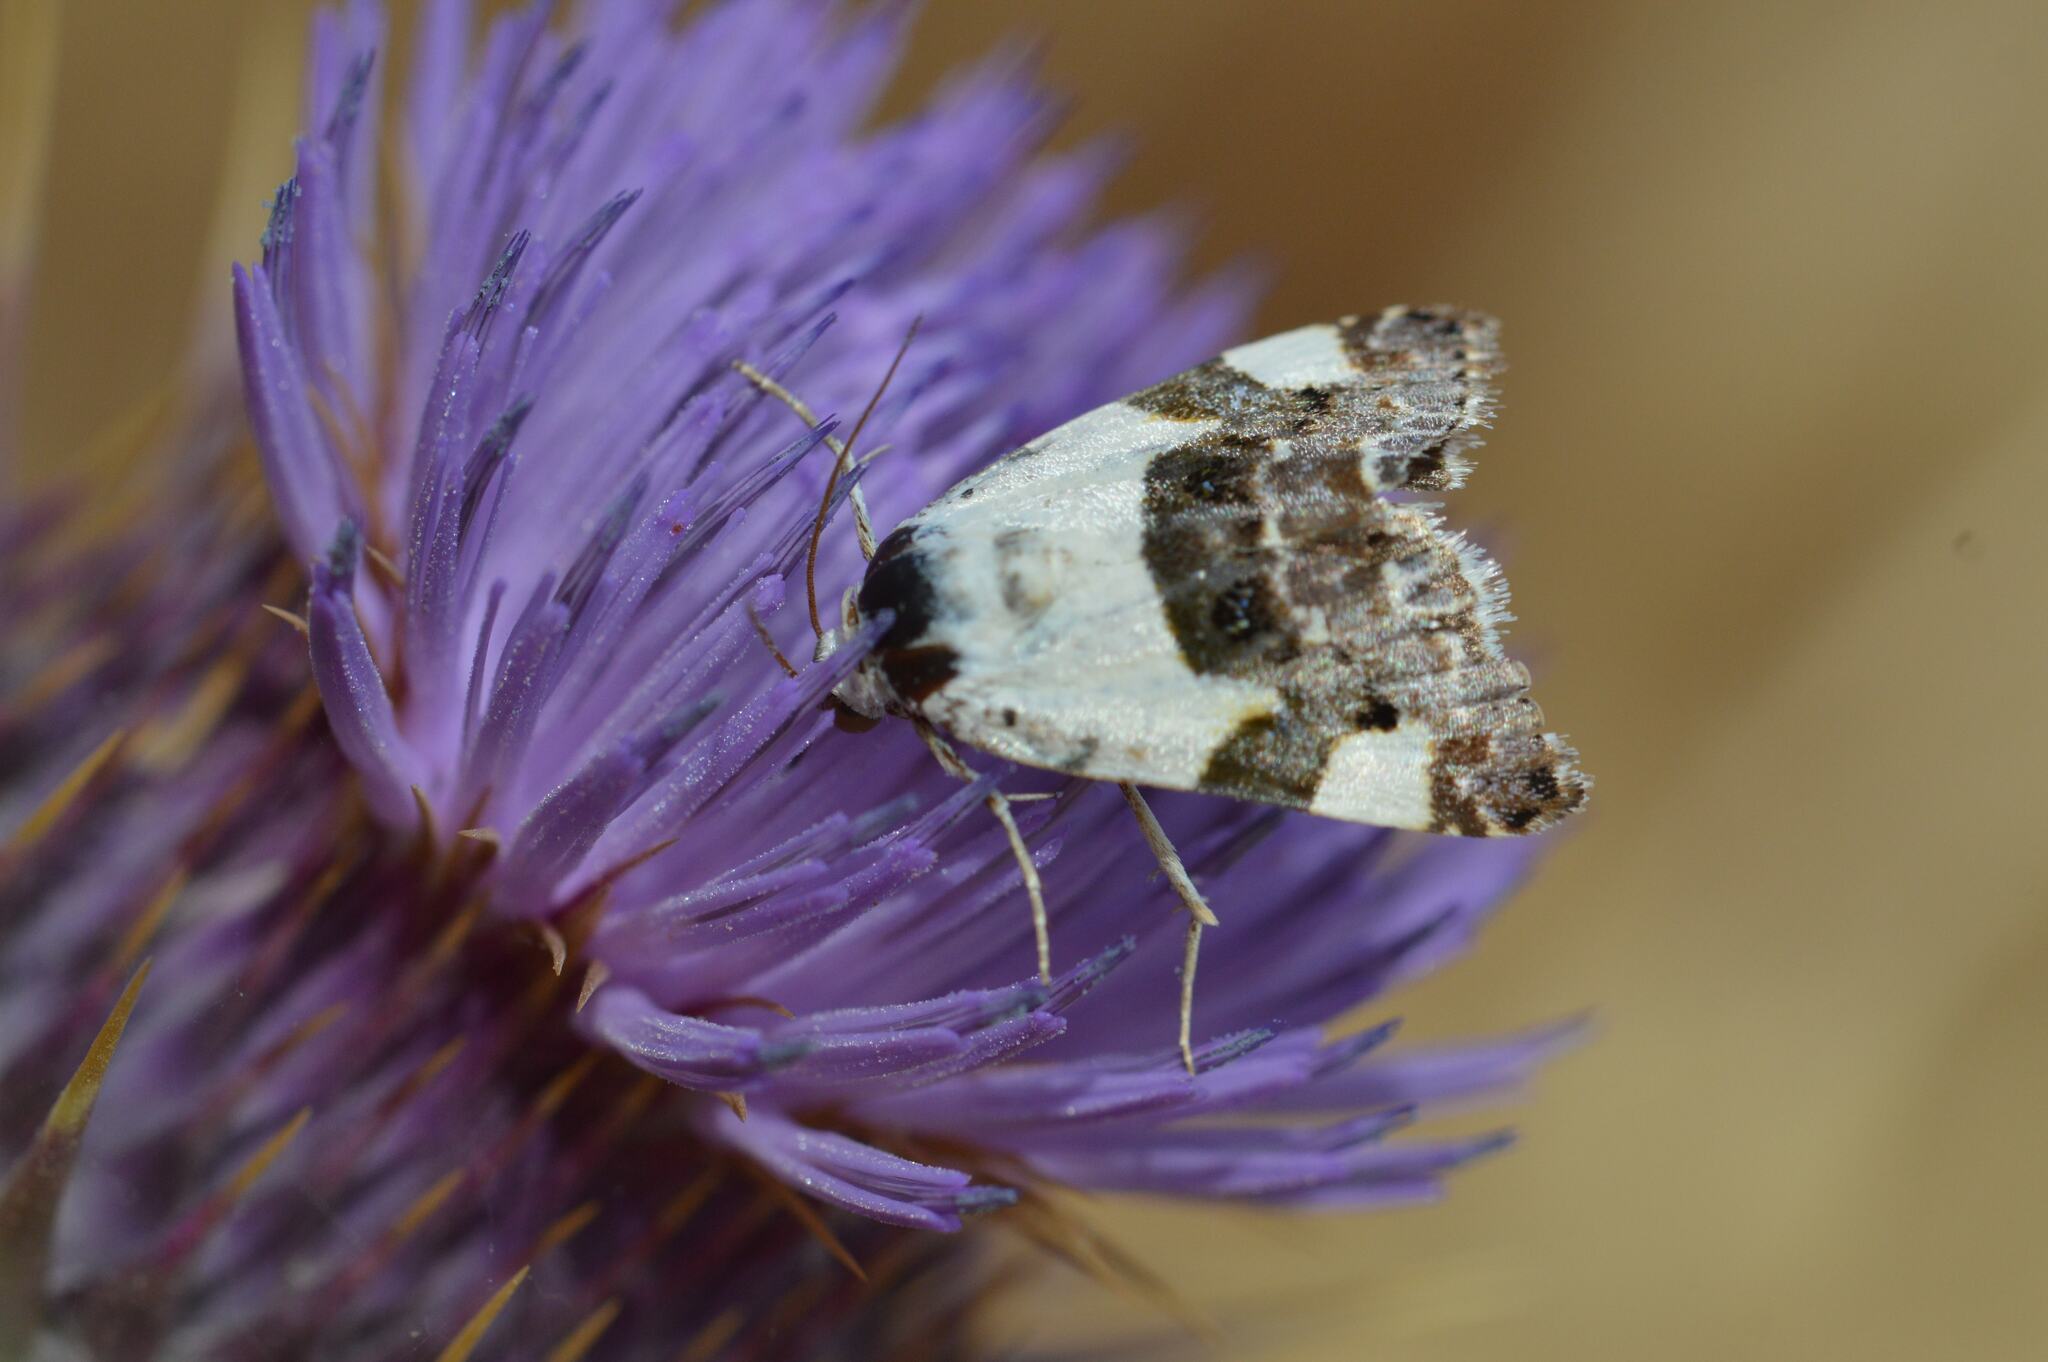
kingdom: Animalia
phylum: Arthropoda
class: Insecta
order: Lepidoptera
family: Noctuidae
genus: Acontia
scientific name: Acontia lucida
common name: Pale shoulder
